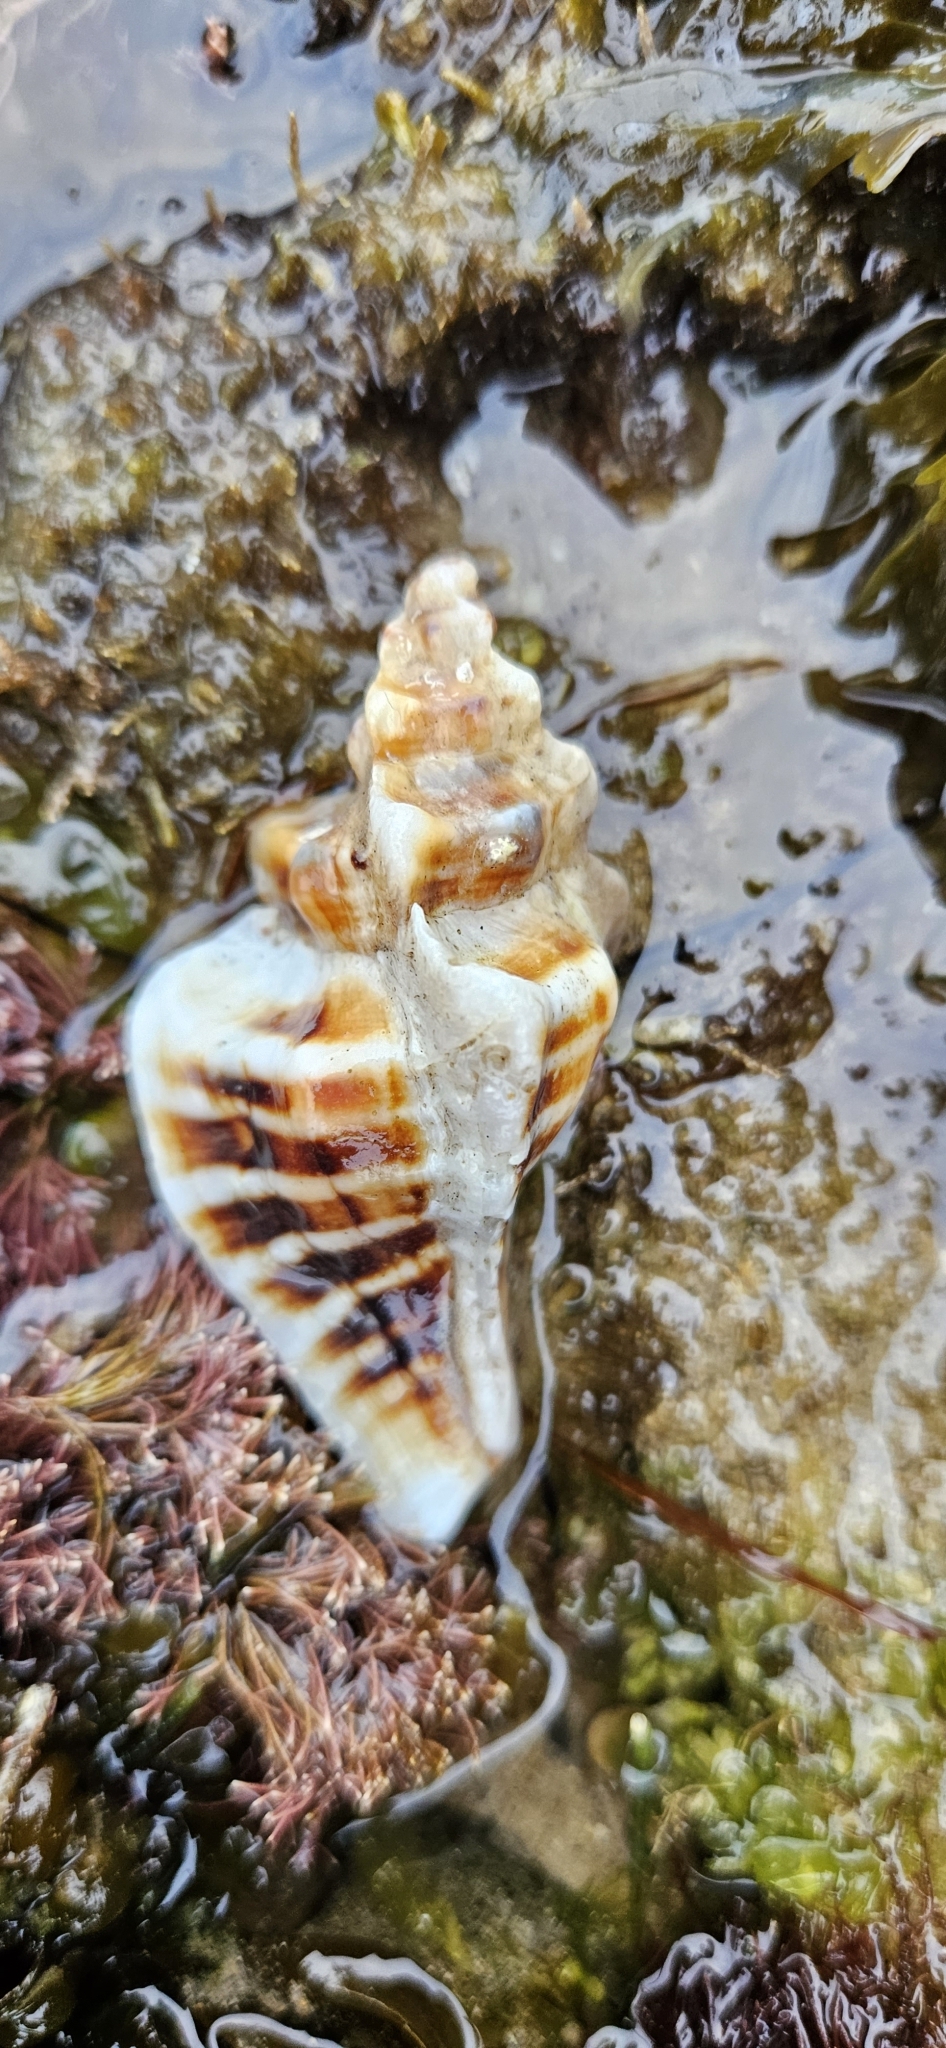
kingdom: Animalia
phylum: Mollusca
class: Gastropoda
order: Neogastropoda
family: Muricidae
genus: Pteropurpura
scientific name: Pteropurpura trialata
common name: Three-winged murex
